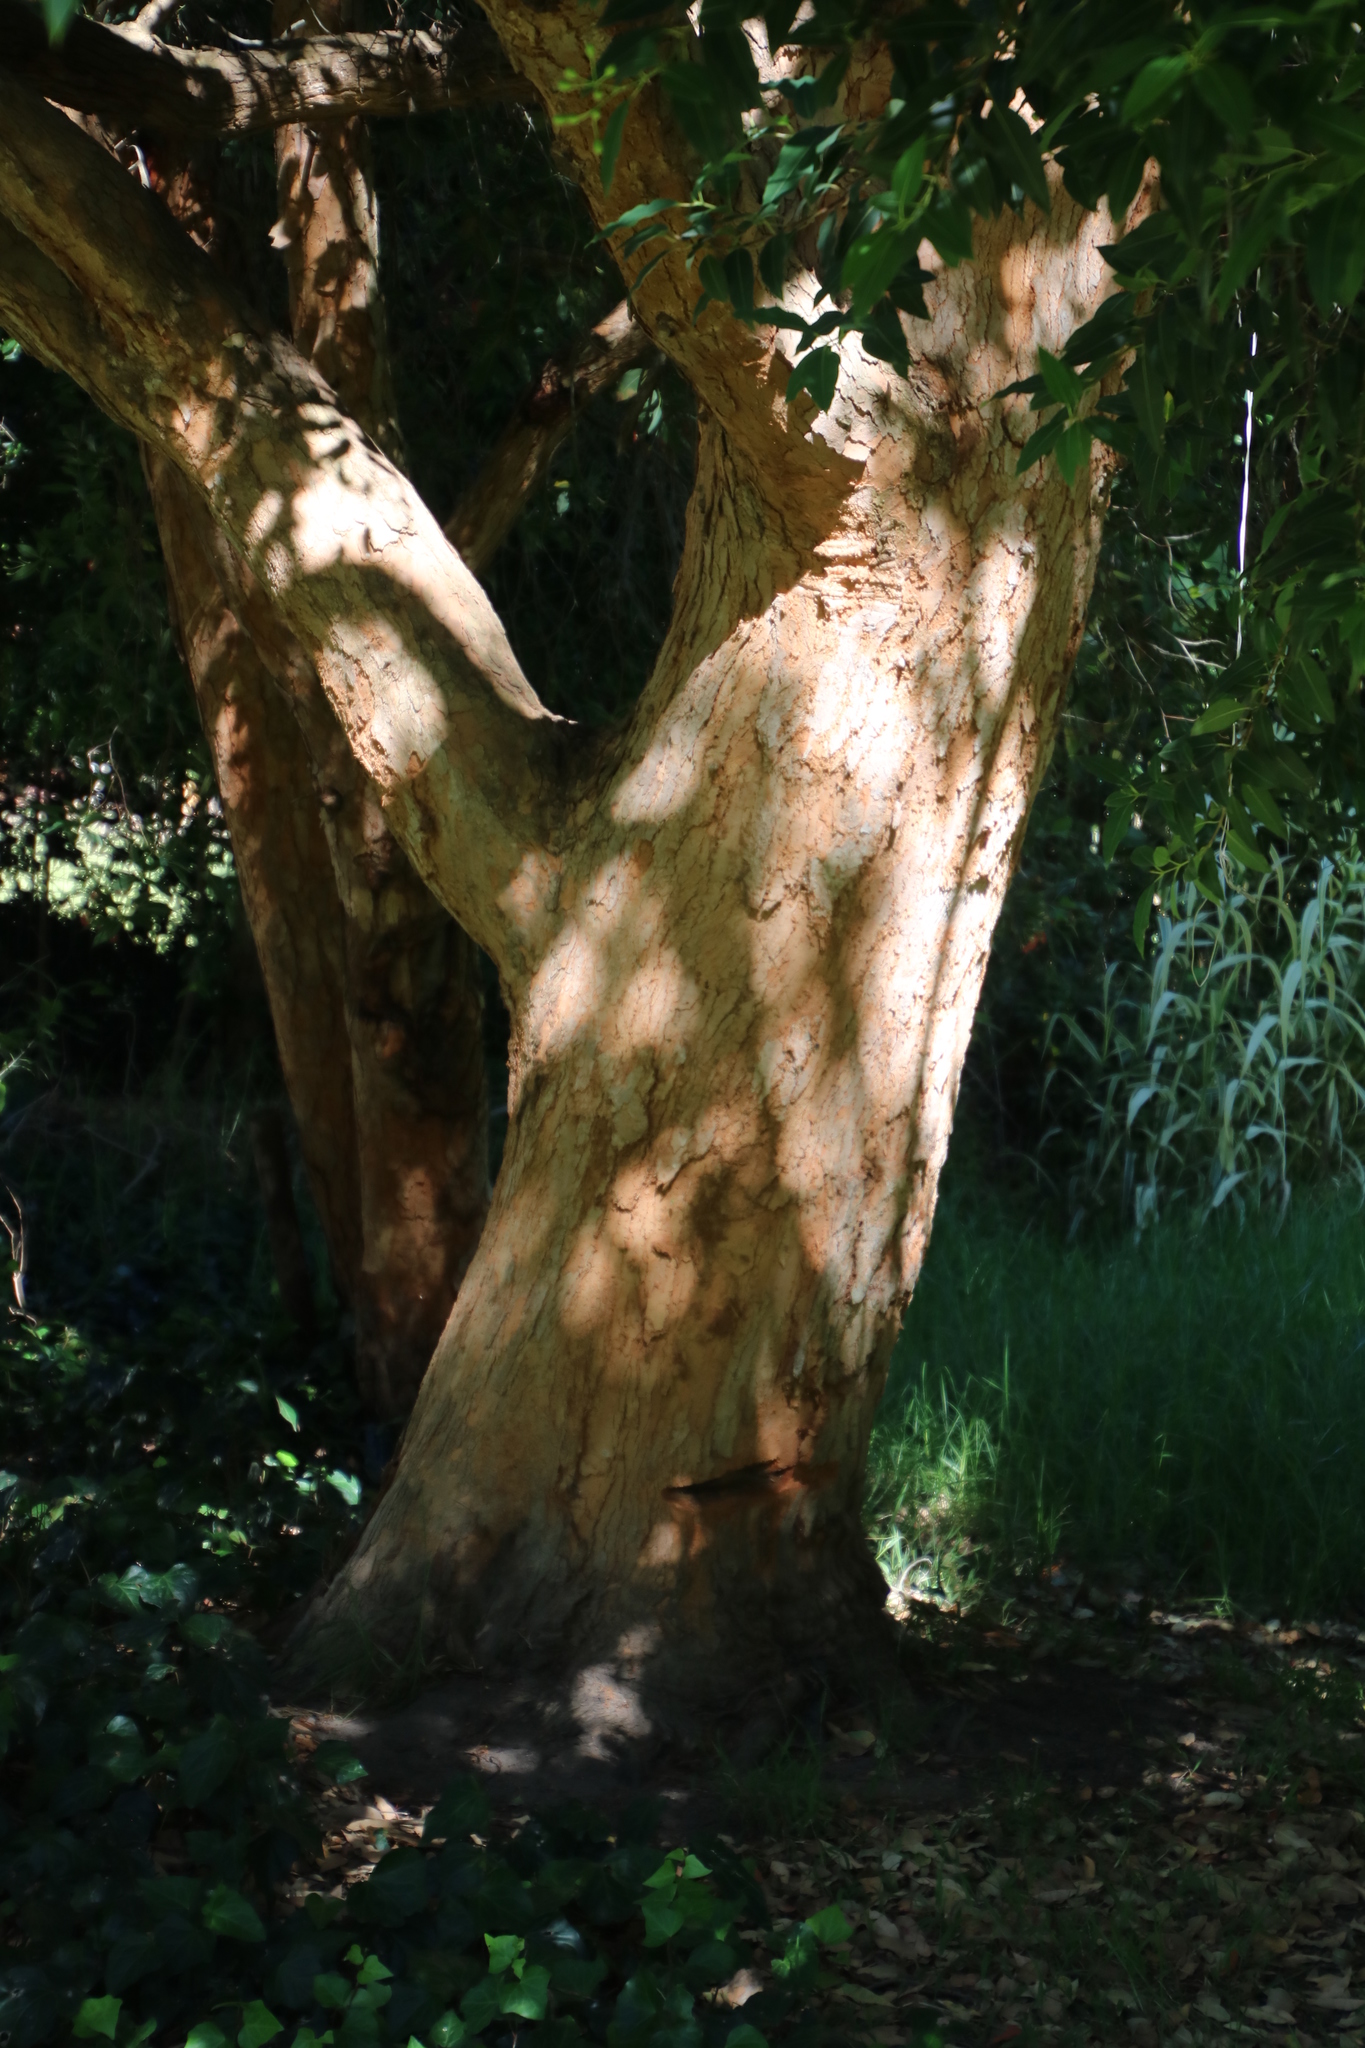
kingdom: Plantae
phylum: Tracheophyta
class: Magnoliopsida
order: Myrtales
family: Myrtaceae
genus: Corymbia
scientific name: Corymbia ficifolia
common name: Redflower gum
